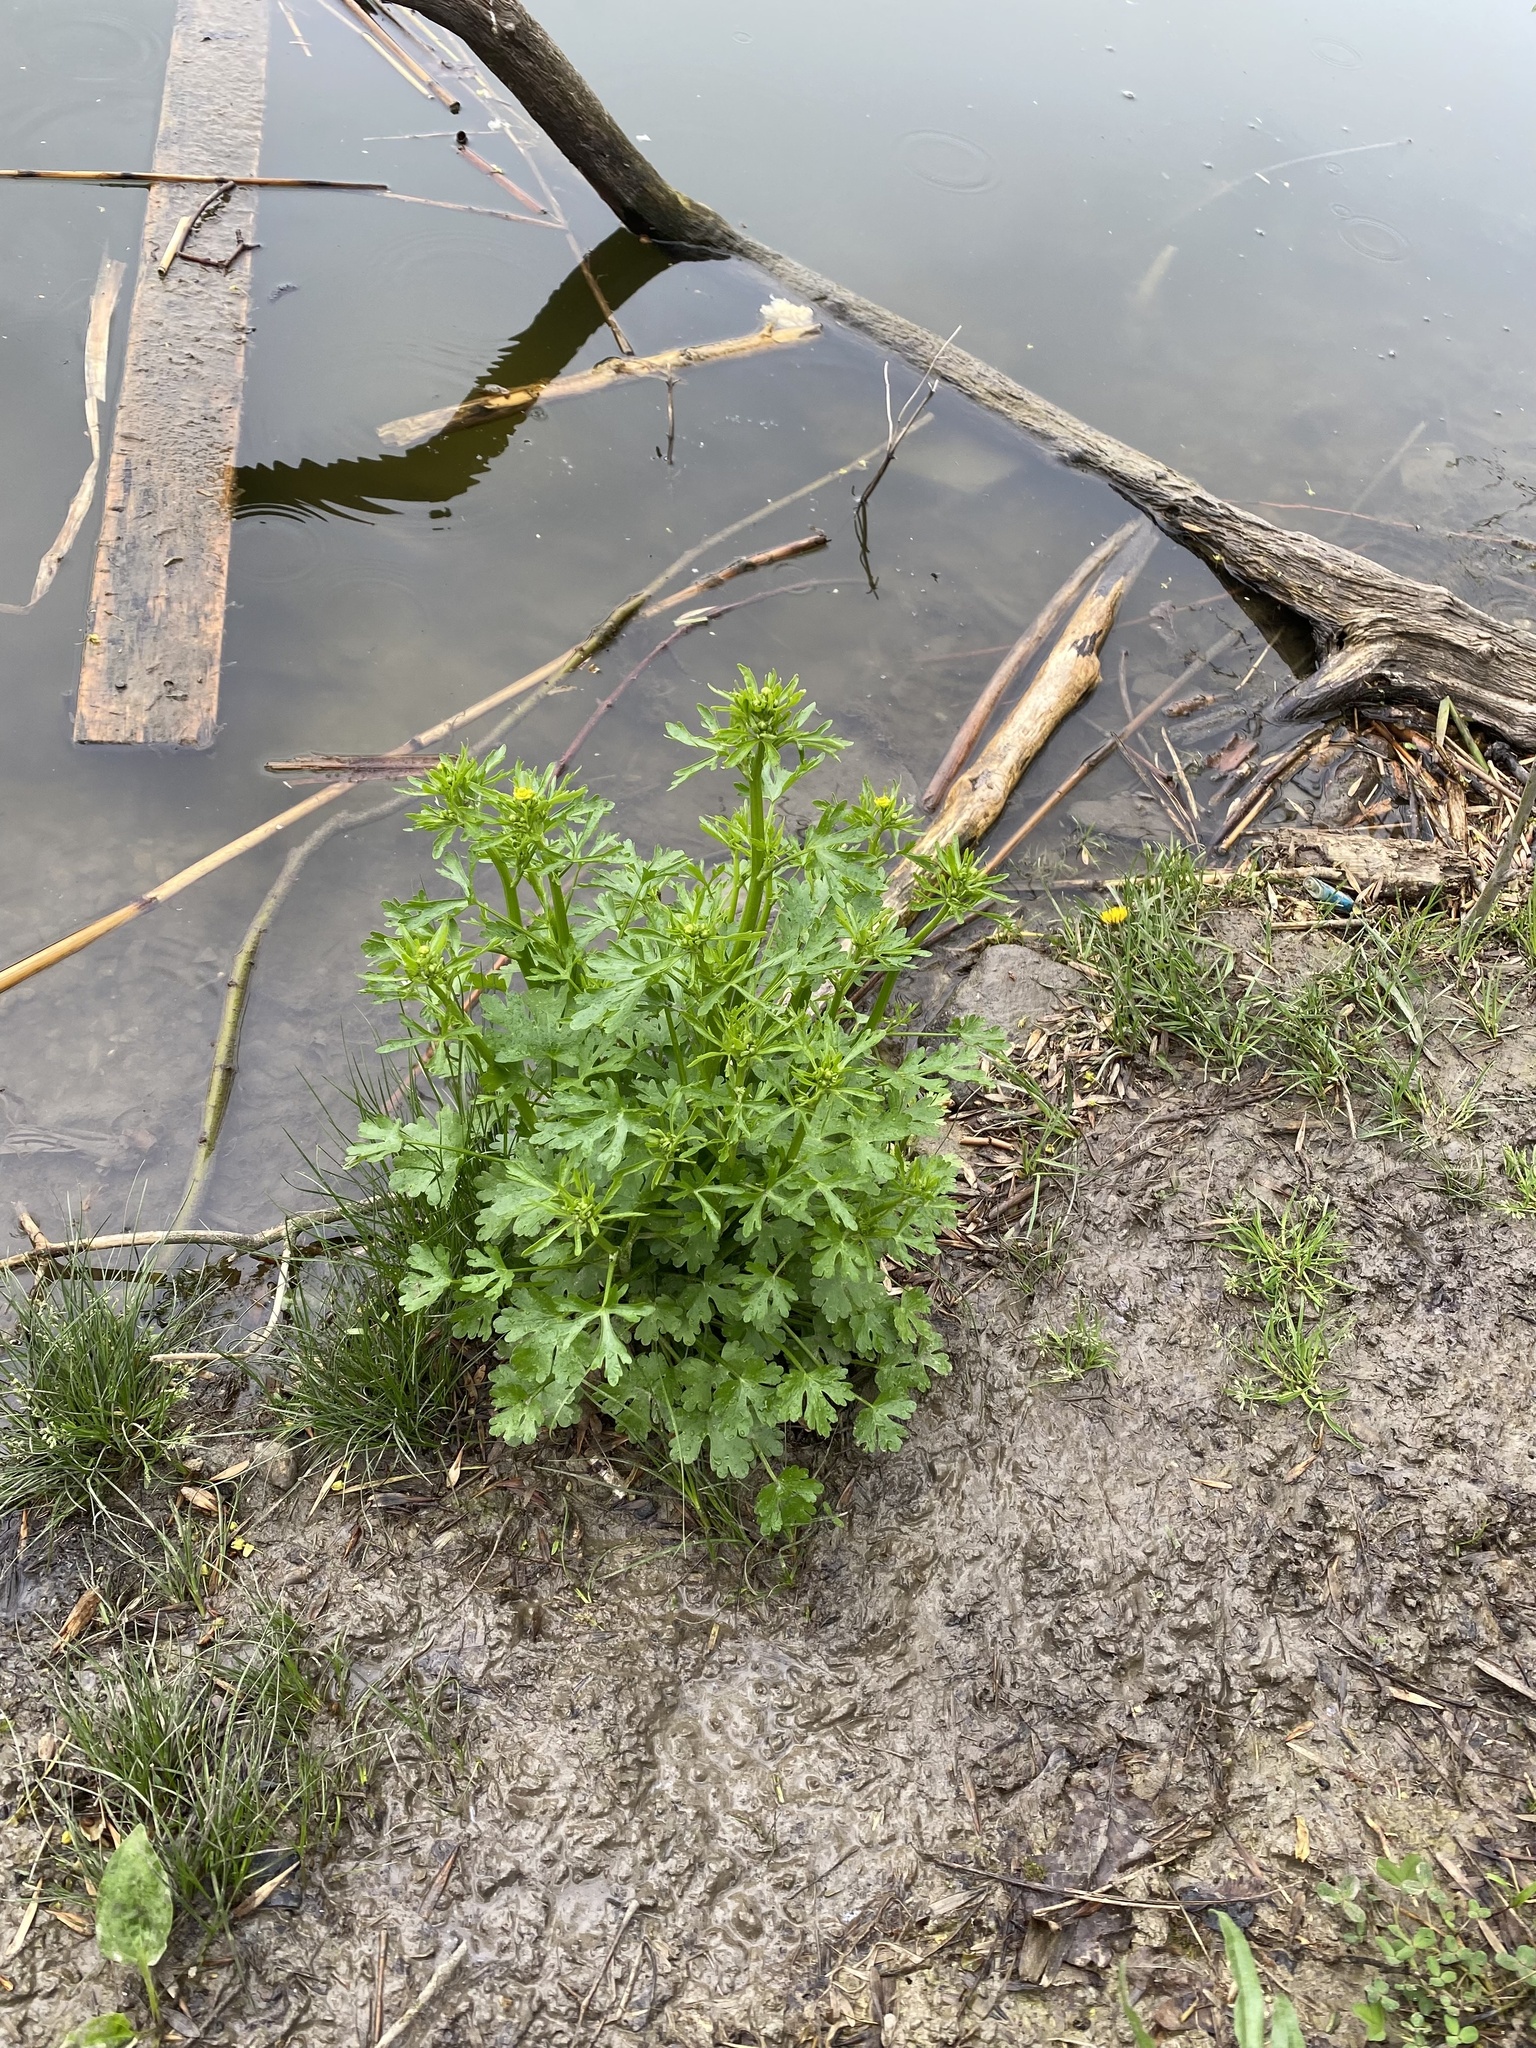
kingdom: Plantae
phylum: Tracheophyta
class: Magnoliopsida
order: Ranunculales
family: Ranunculaceae
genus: Ranunculus
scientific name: Ranunculus sceleratus
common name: Celery-leaved buttercup
